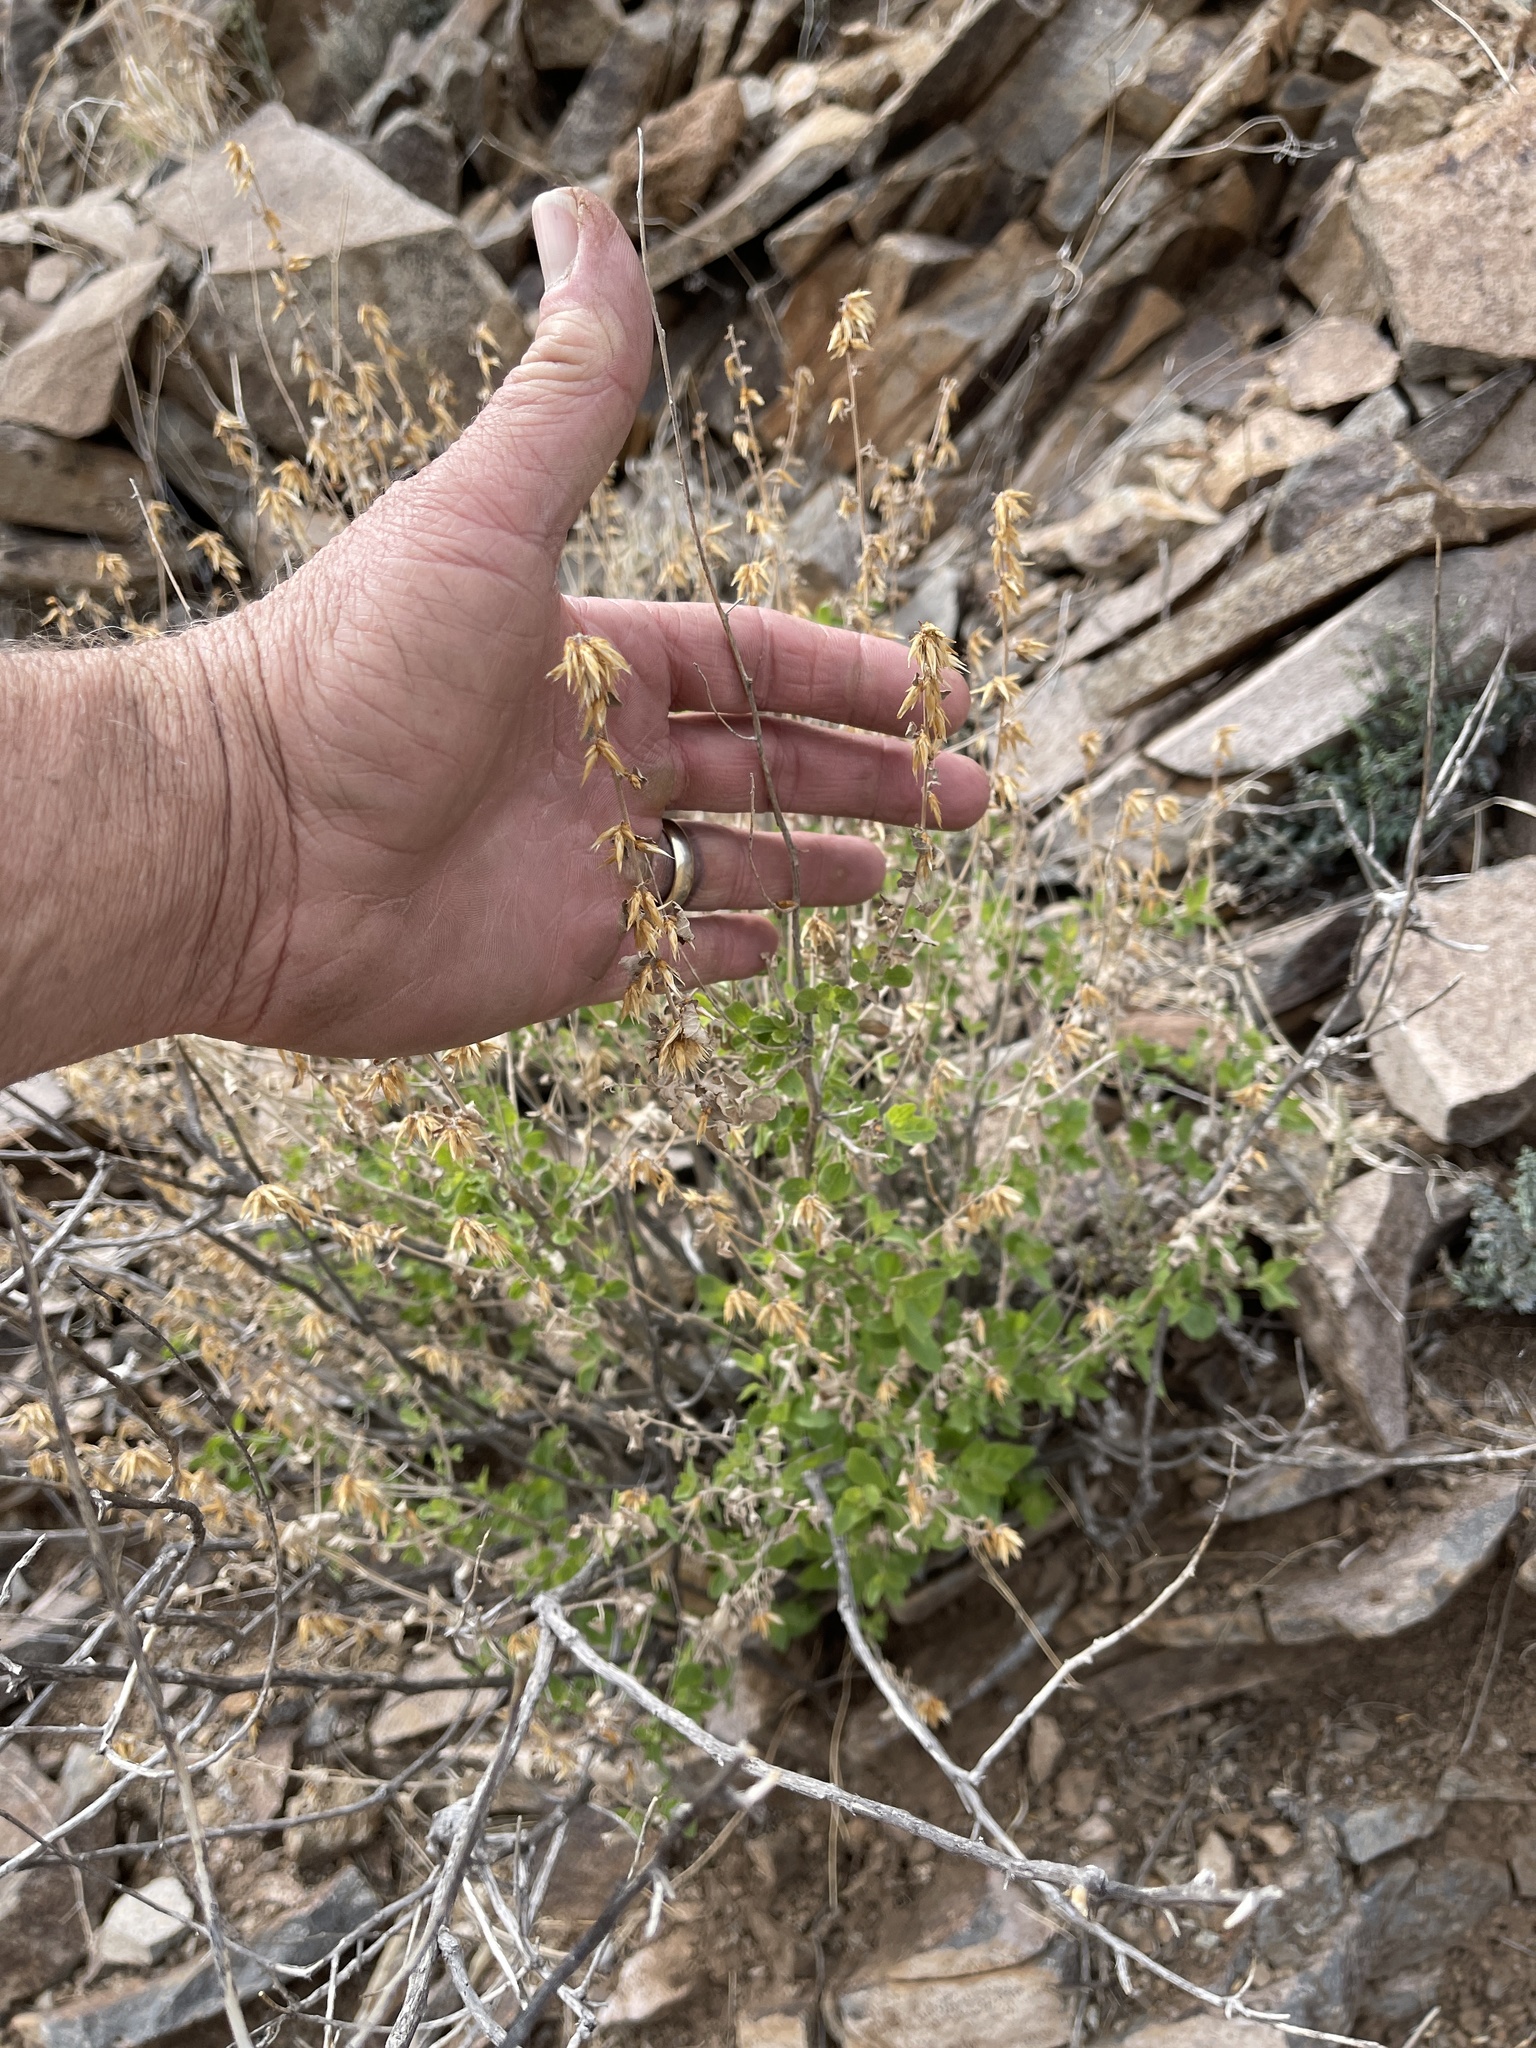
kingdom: Plantae
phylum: Tracheophyta
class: Magnoliopsida
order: Asterales
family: Asteraceae
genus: Brickellia
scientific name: Brickellia californica
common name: California brickellbush
